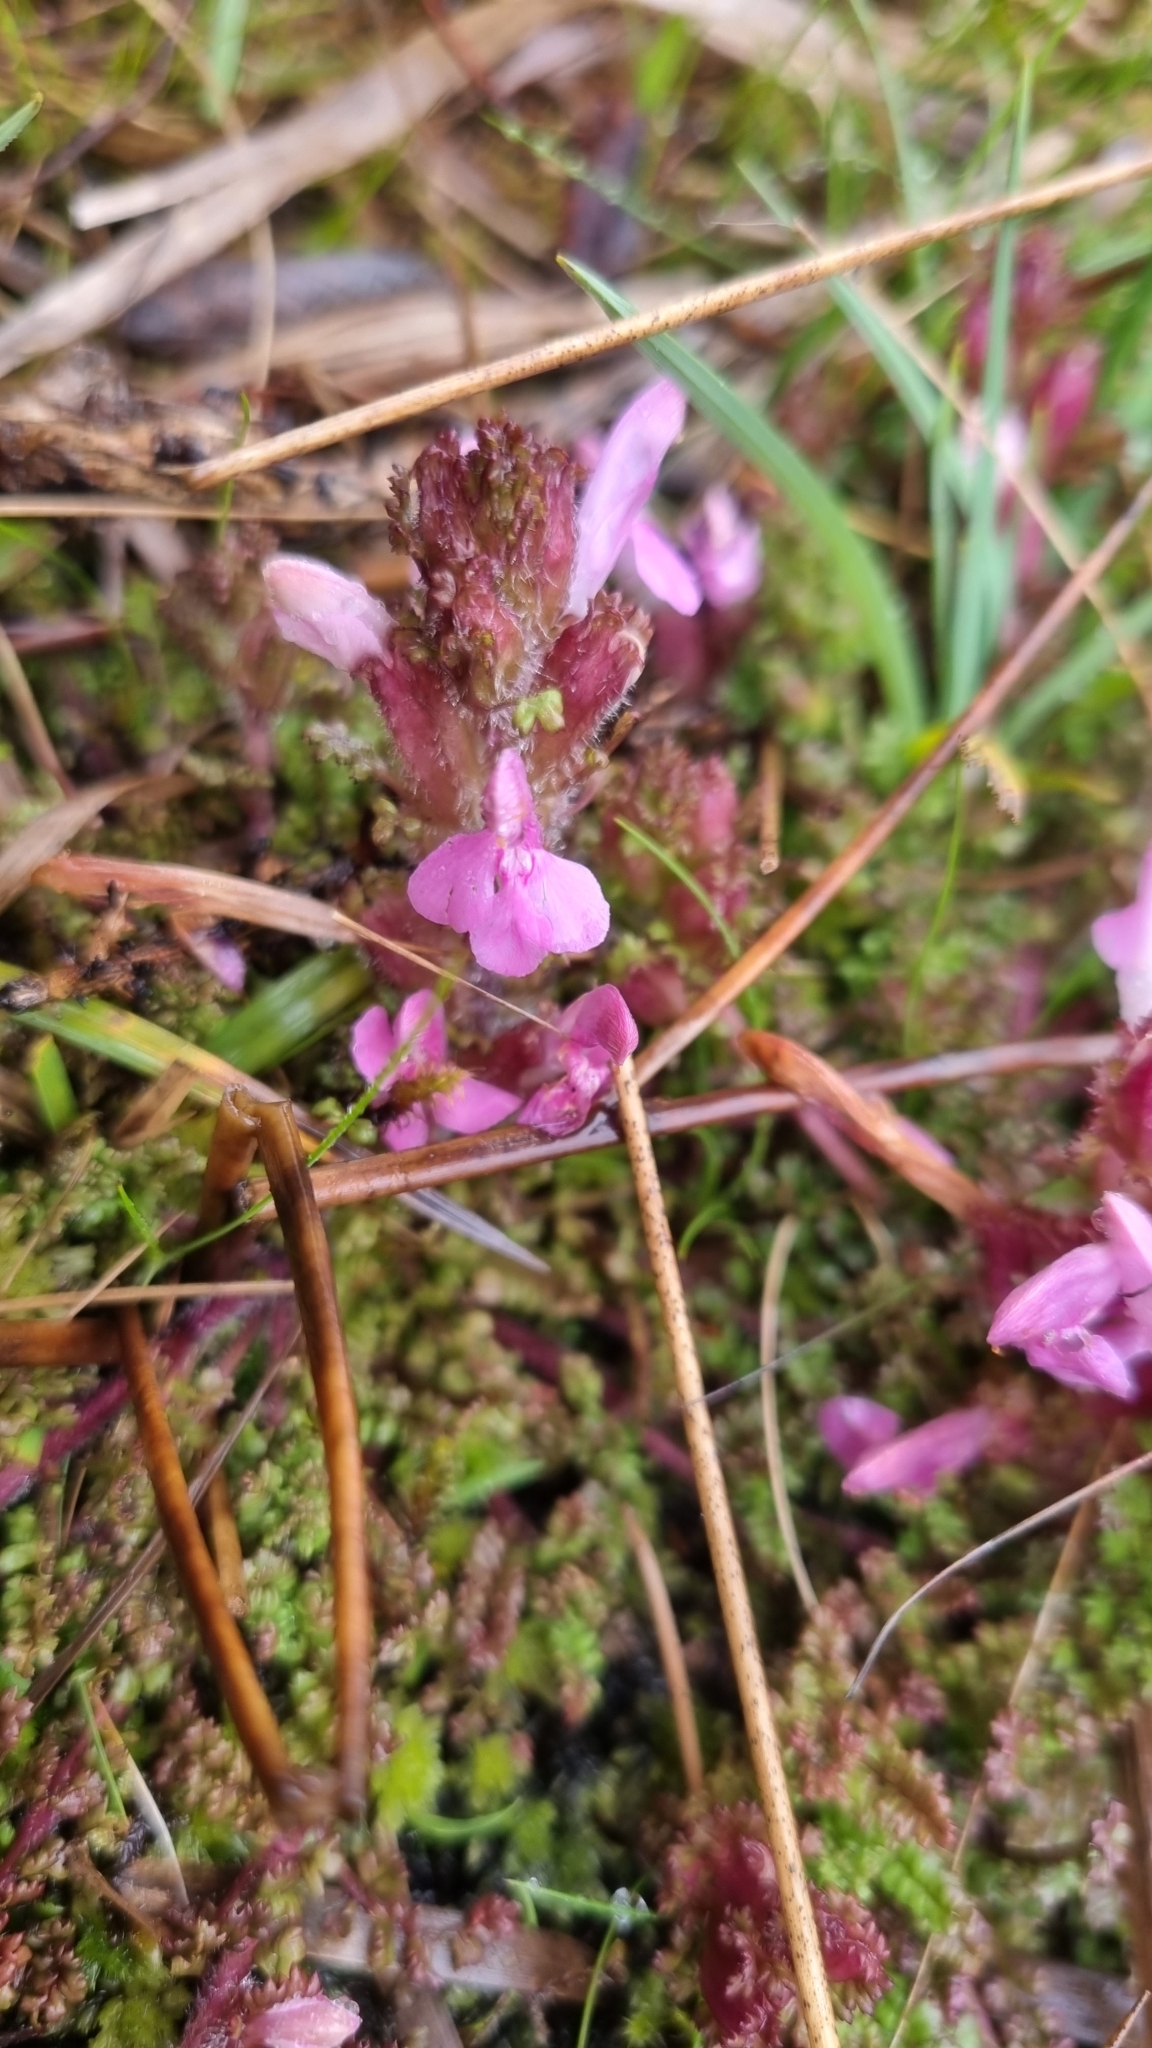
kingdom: Plantae
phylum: Tracheophyta
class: Magnoliopsida
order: Lamiales
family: Orobanchaceae
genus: Pedicularis
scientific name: Pedicularis sylvatica
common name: Lousewort
